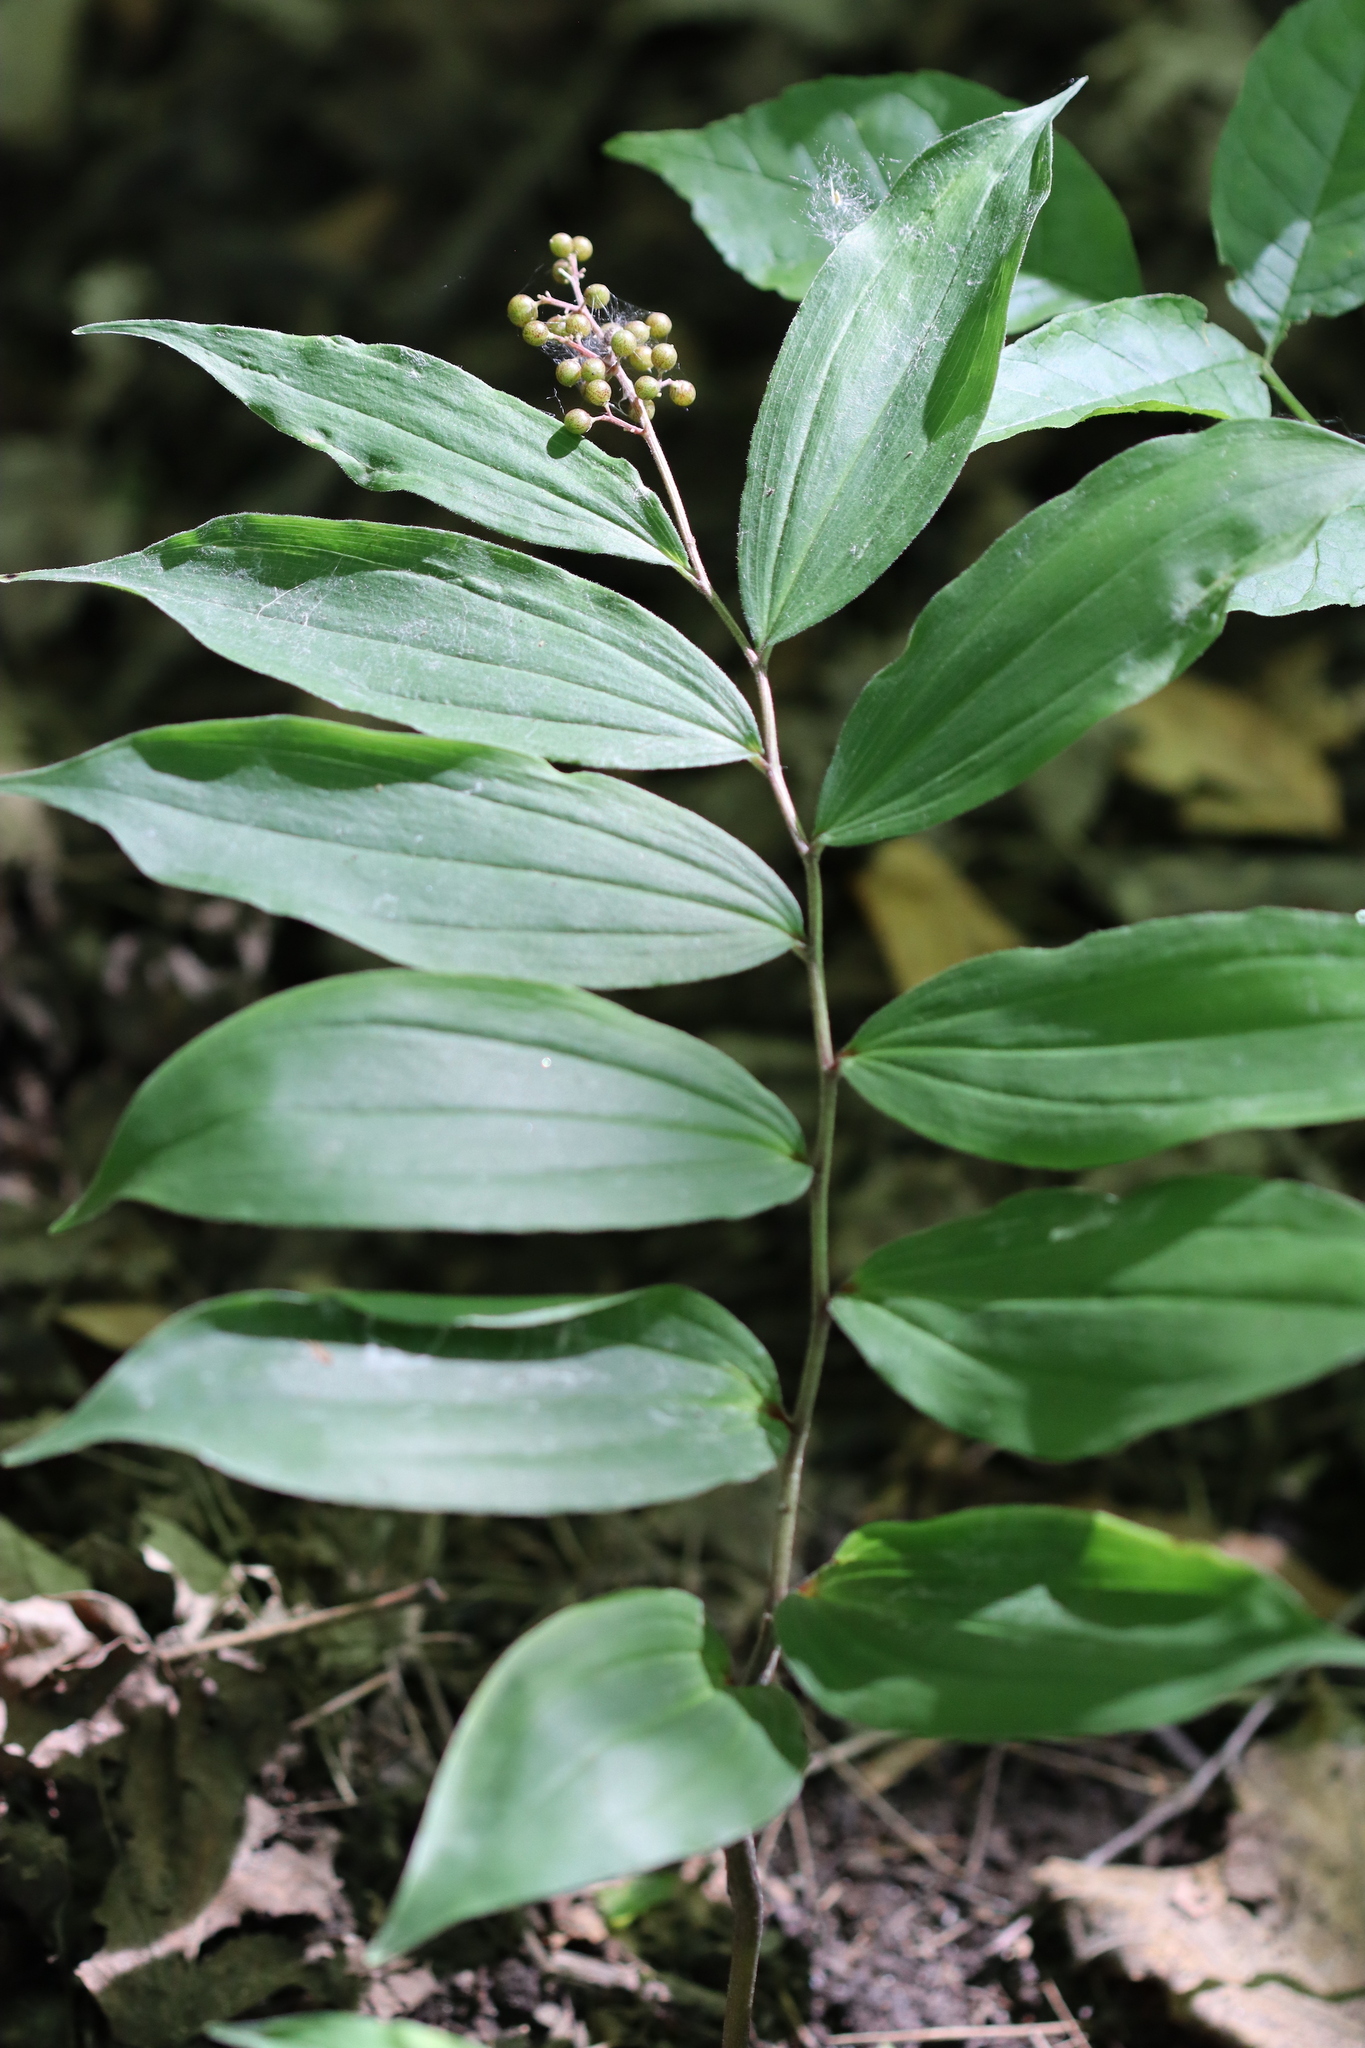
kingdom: Plantae
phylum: Tracheophyta
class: Liliopsida
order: Asparagales
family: Asparagaceae
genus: Maianthemum
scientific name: Maianthemum racemosum
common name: False spikenard
